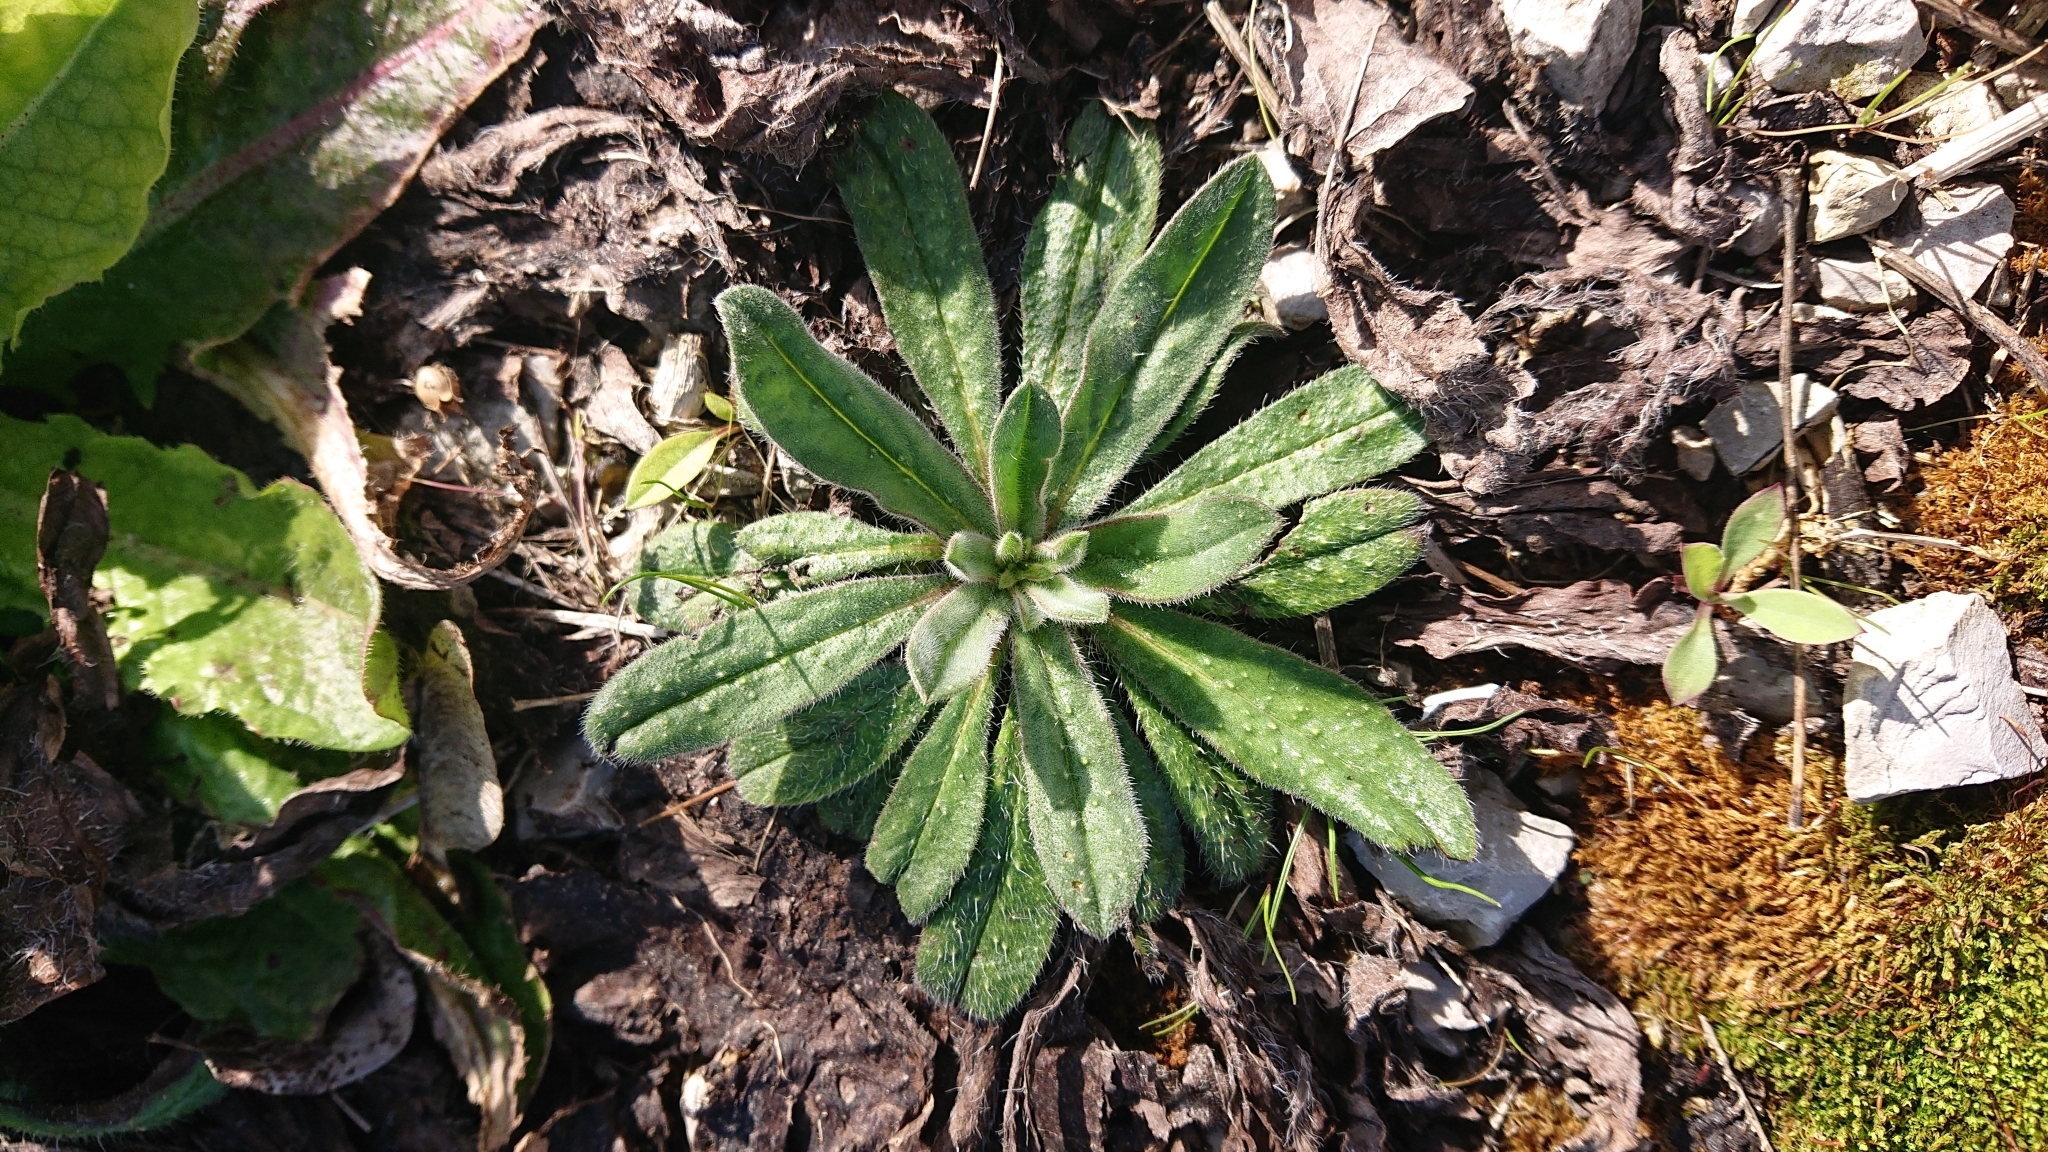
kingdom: Plantae
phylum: Tracheophyta
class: Magnoliopsida
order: Boraginales
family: Boraginaceae
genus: Echium
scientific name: Echium vulgare
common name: Common viper's bugloss
